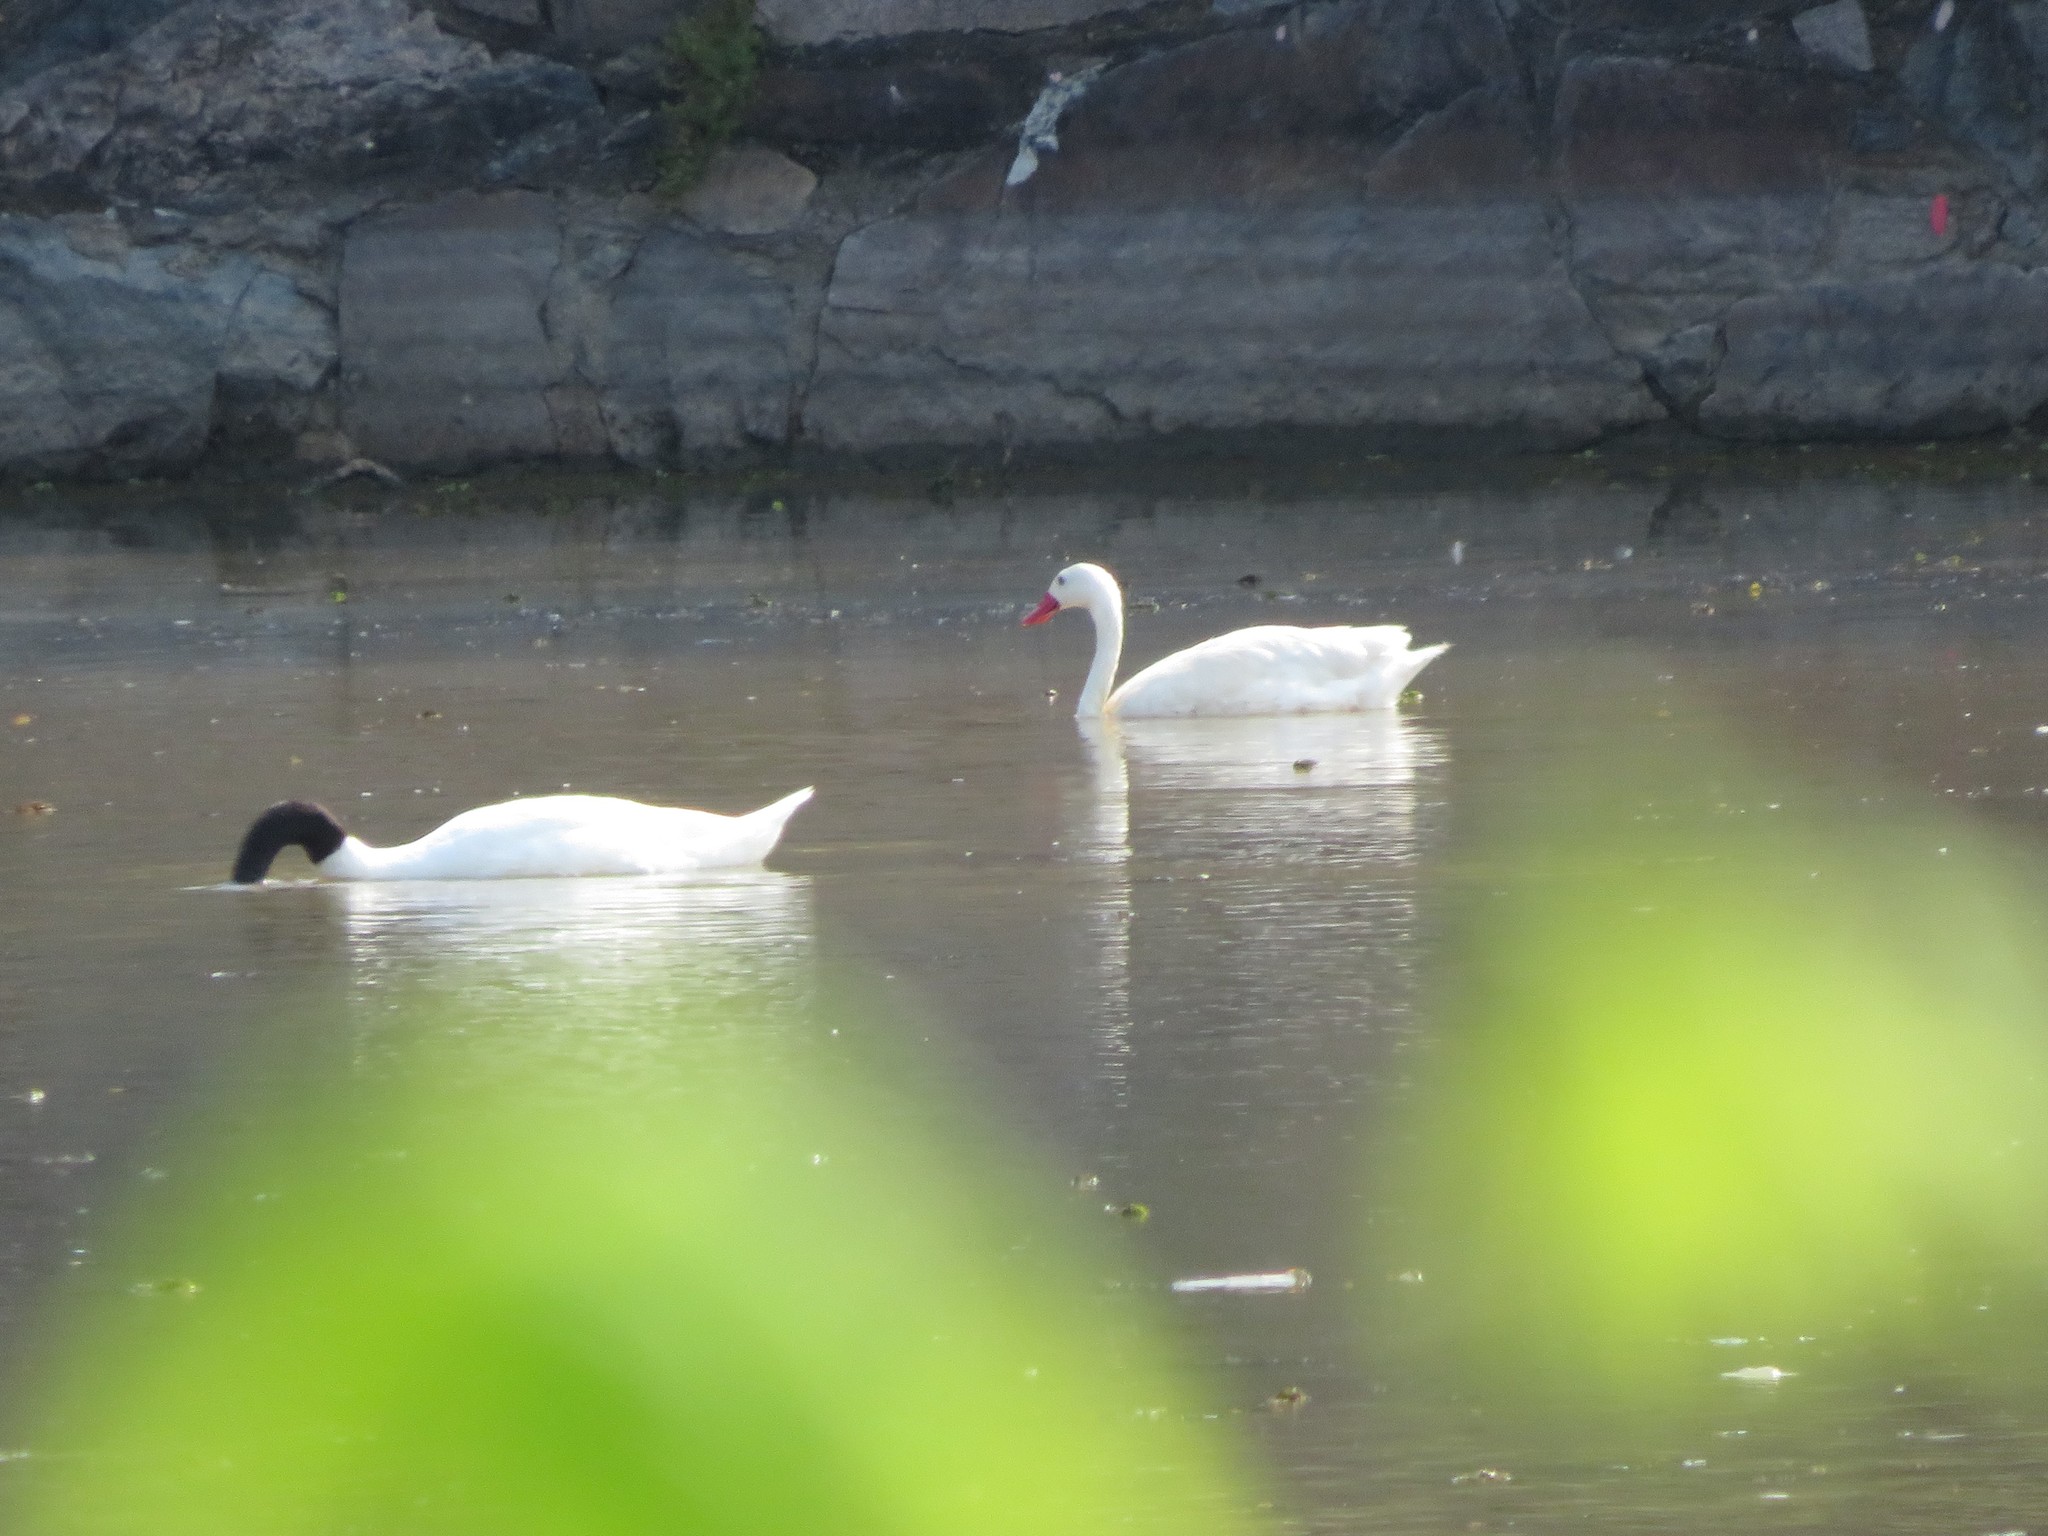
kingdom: Animalia
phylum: Chordata
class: Aves
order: Anseriformes
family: Anatidae
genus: Coscoroba
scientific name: Coscoroba coscoroba
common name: Coscoroba swan
